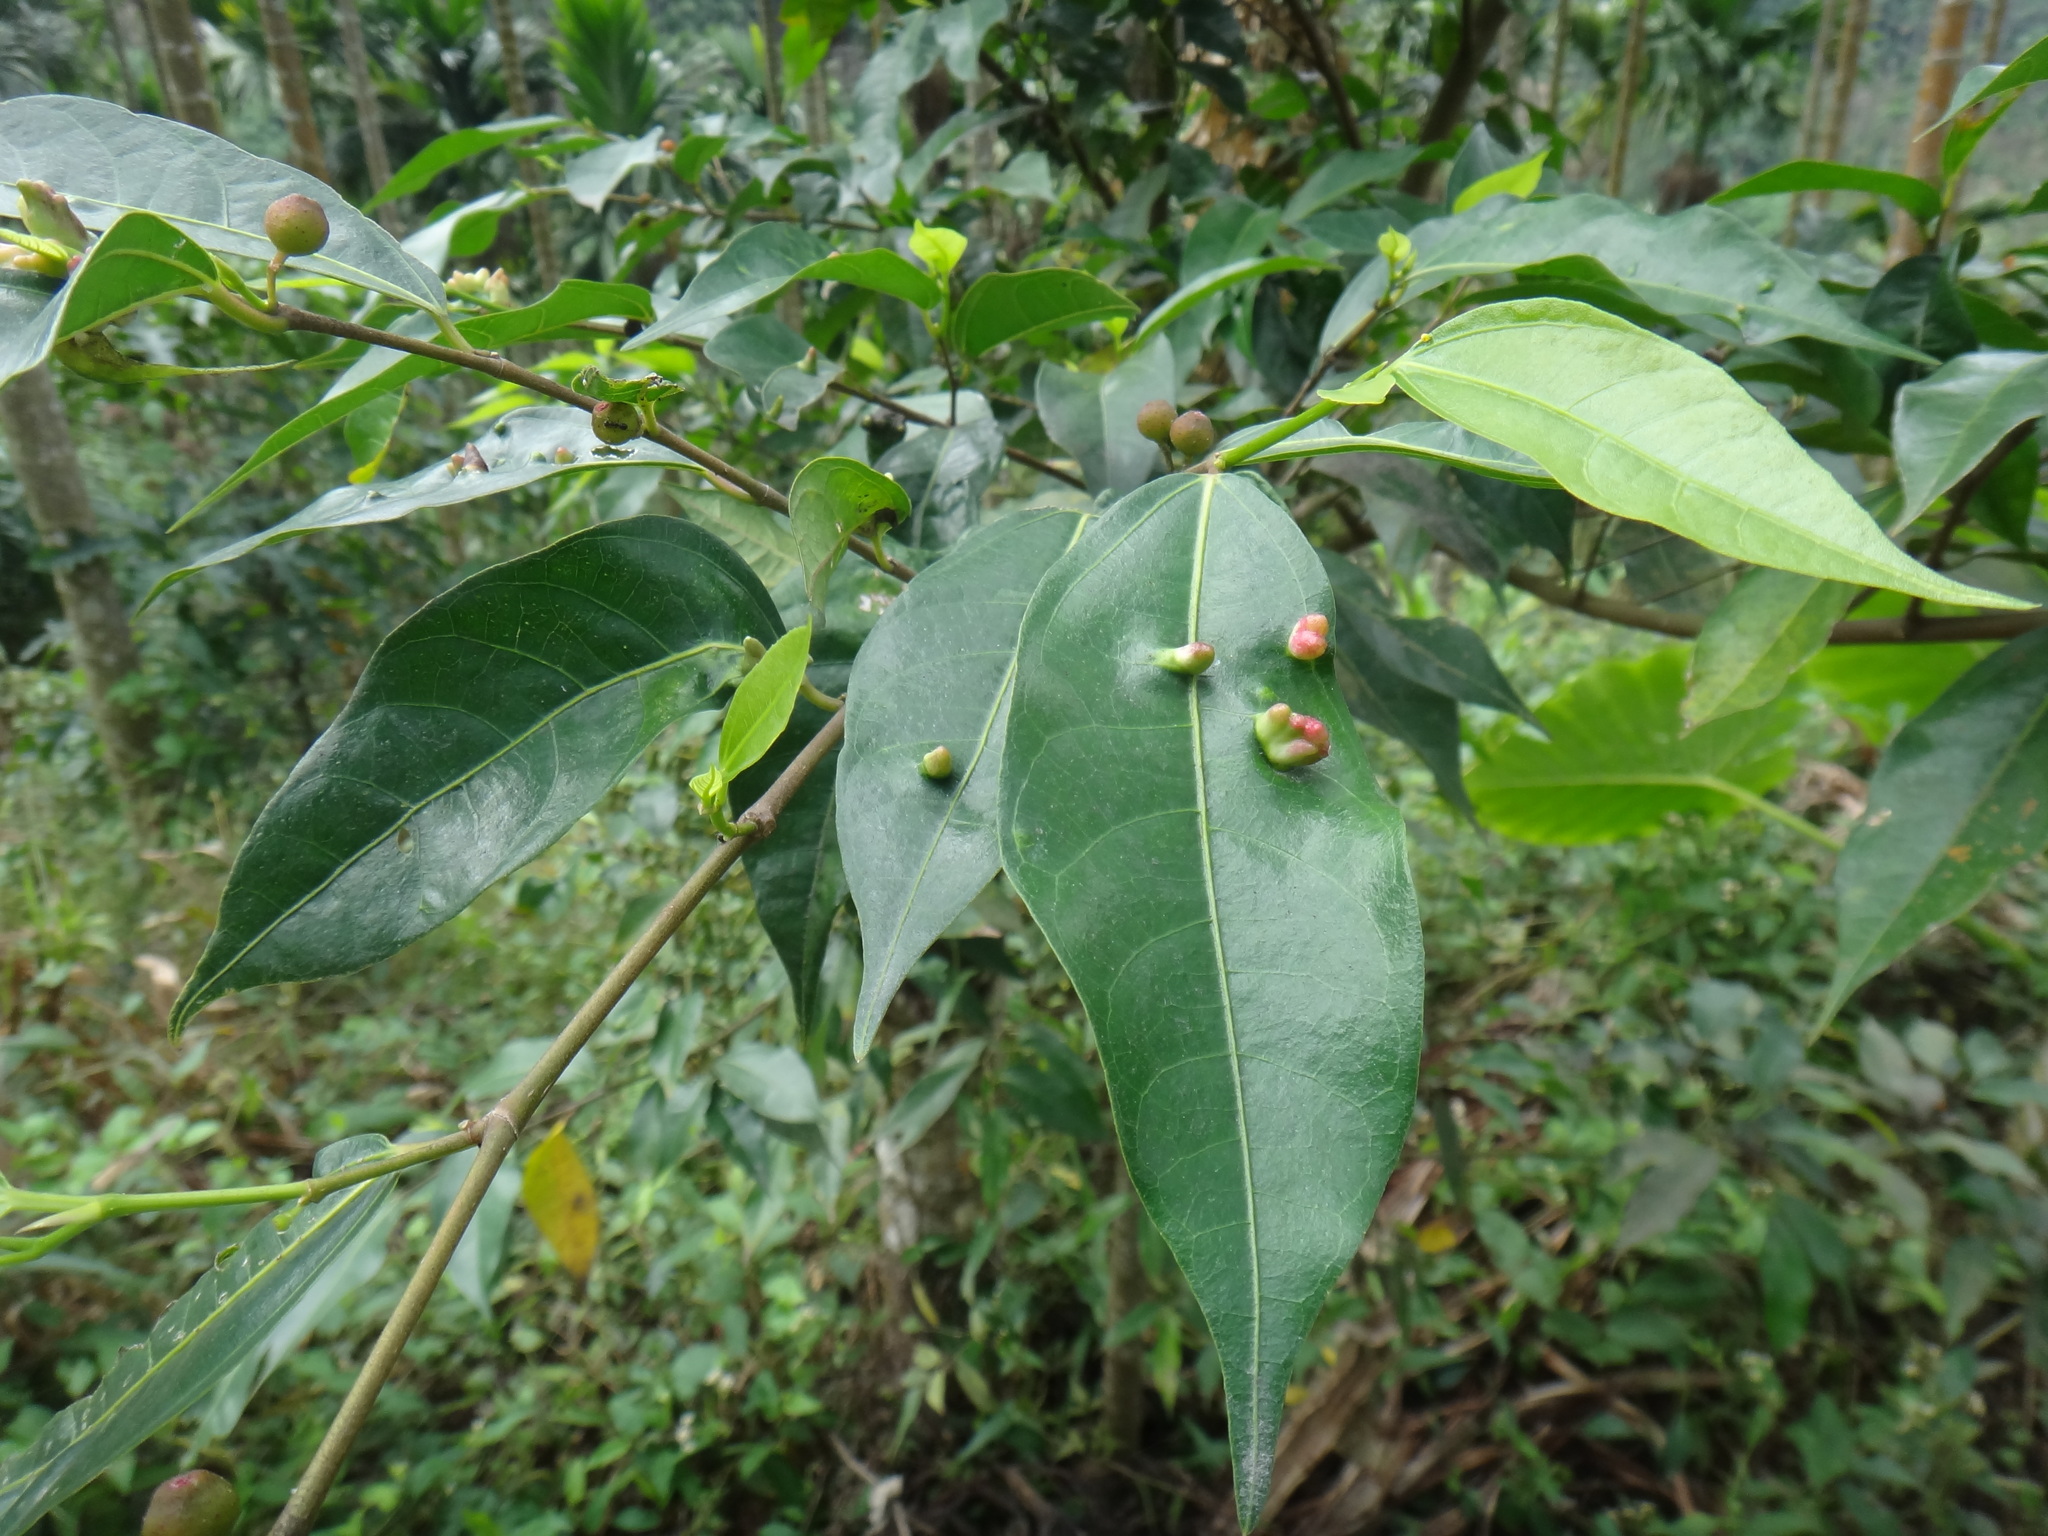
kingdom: Plantae
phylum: Tracheophyta
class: Magnoliopsida
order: Rosales
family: Moraceae
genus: Ficus
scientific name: Ficus ampelos
